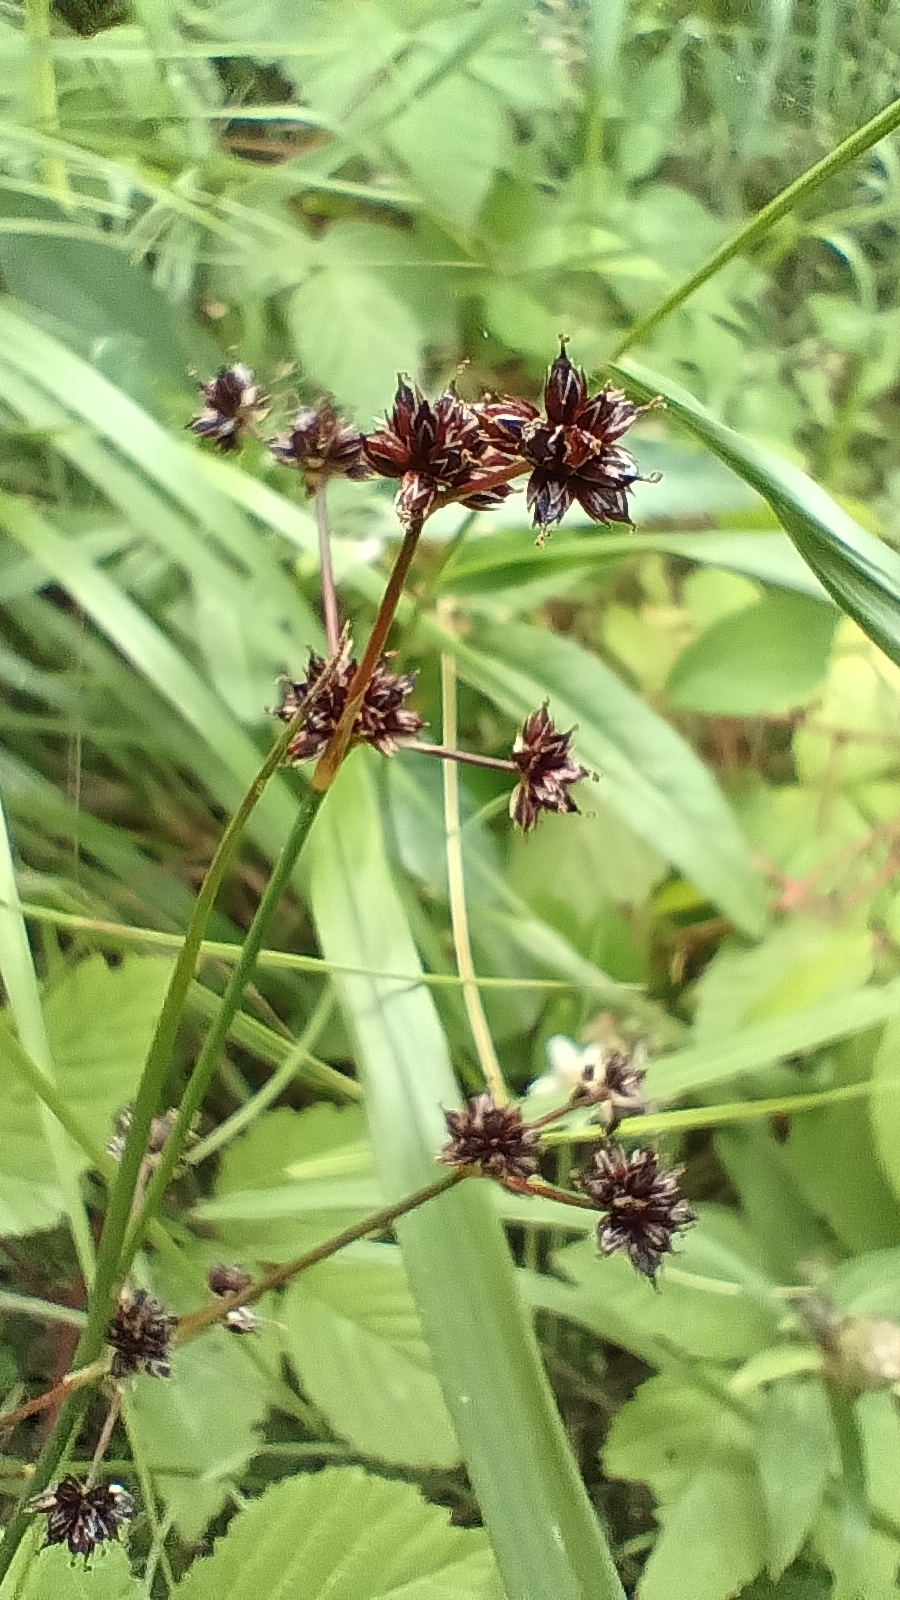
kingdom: Plantae
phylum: Tracheophyta
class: Liliopsida
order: Poales
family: Juncaceae
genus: Juncus
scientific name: Juncus articulatus
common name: Jointed rush
